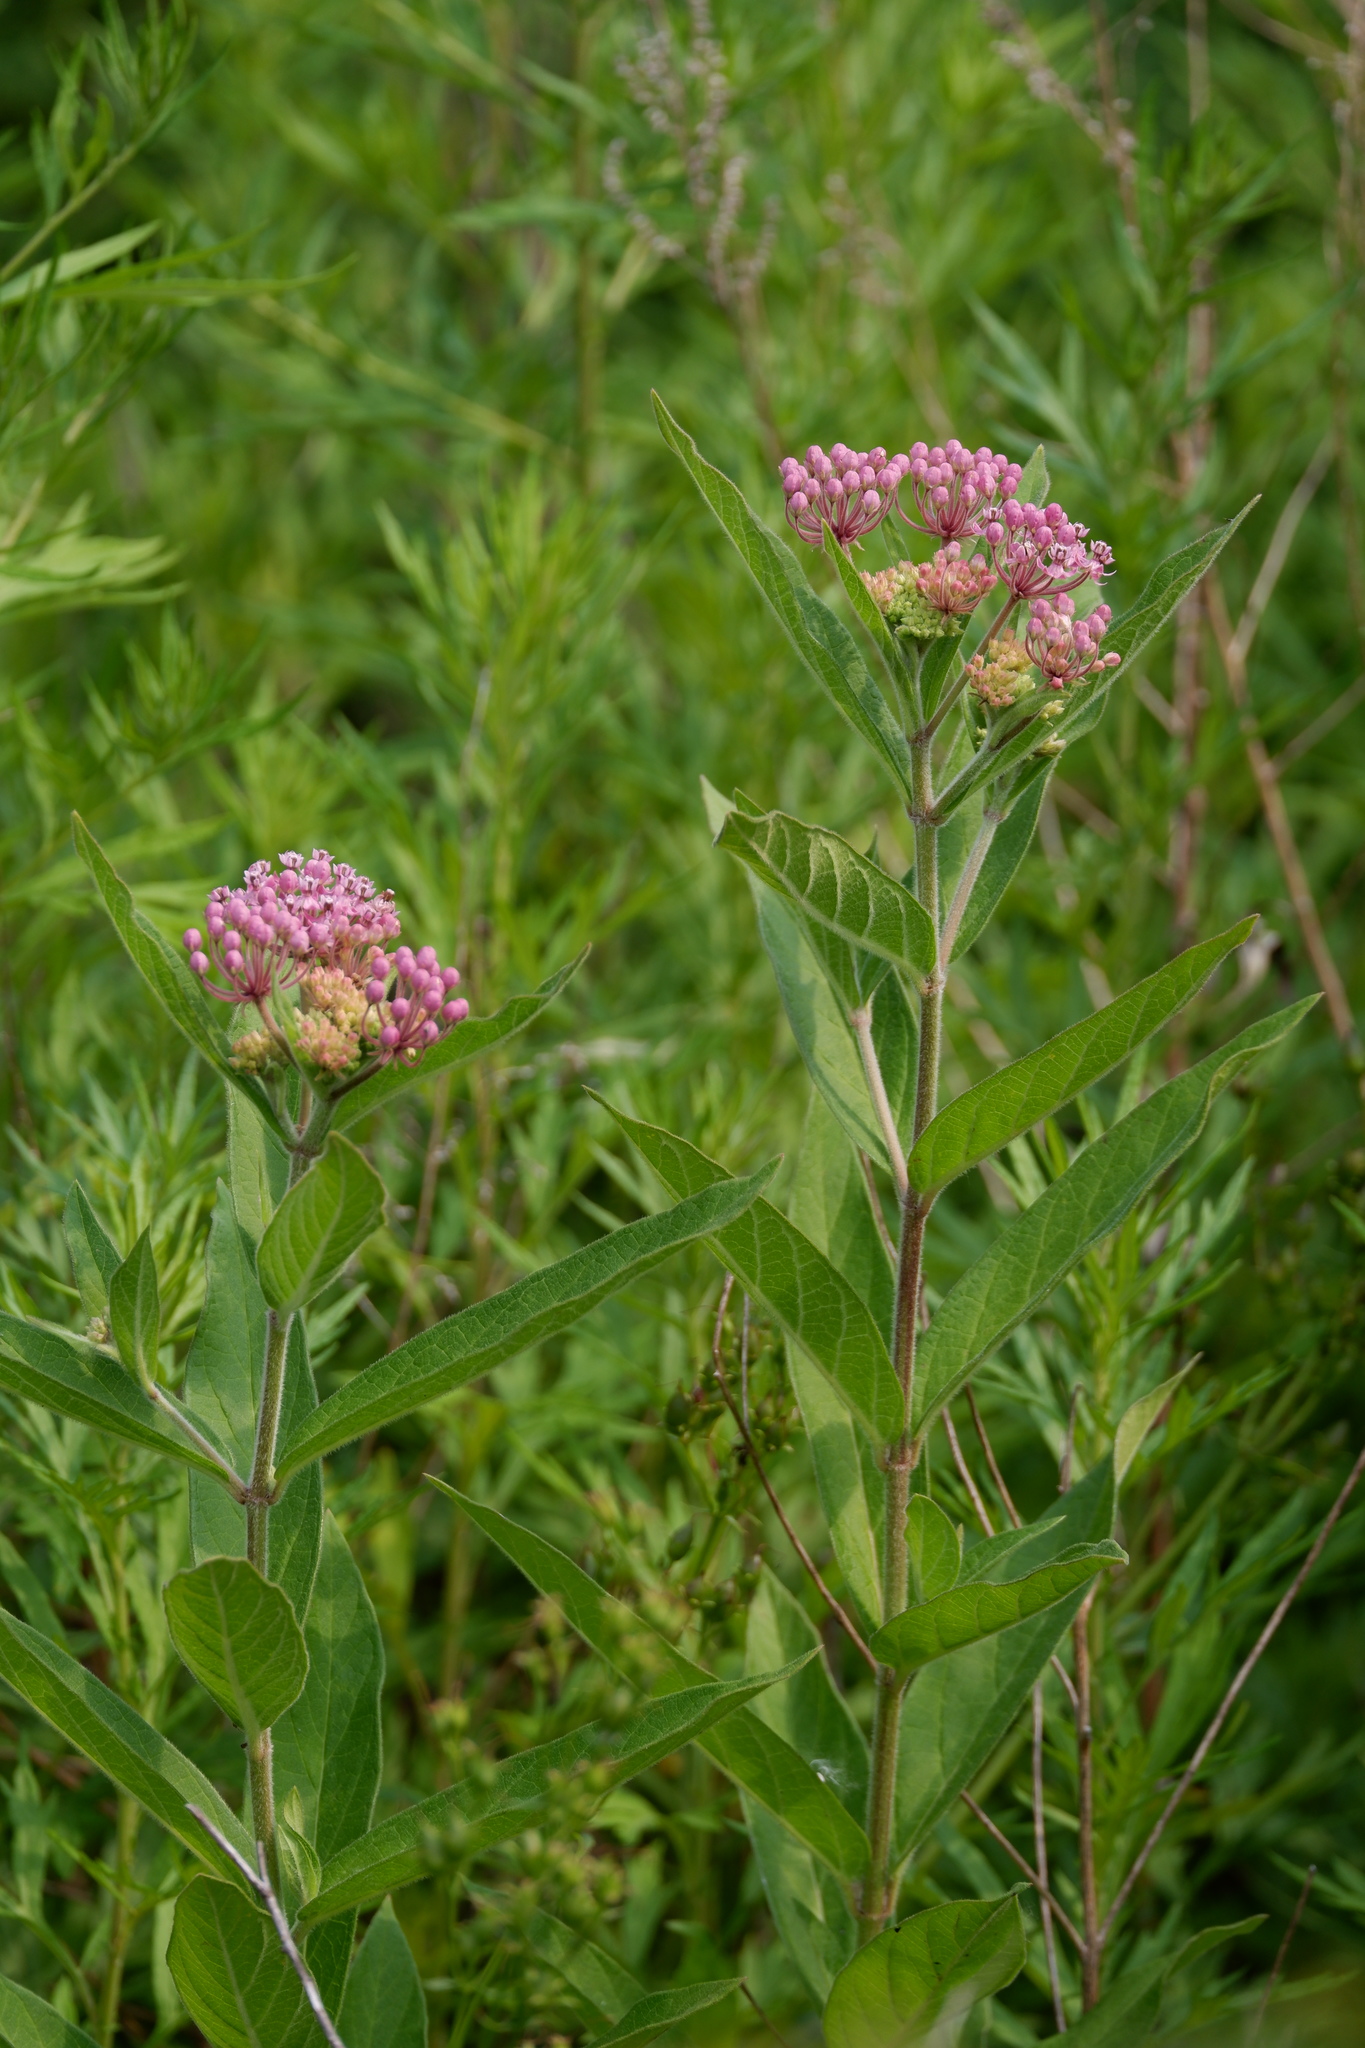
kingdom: Plantae
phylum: Tracheophyta
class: Magnoliopsida
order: Gentianales
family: Apocynaceae
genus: Asclepias
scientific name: Asclepias incarnata
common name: Swamp milkweed
